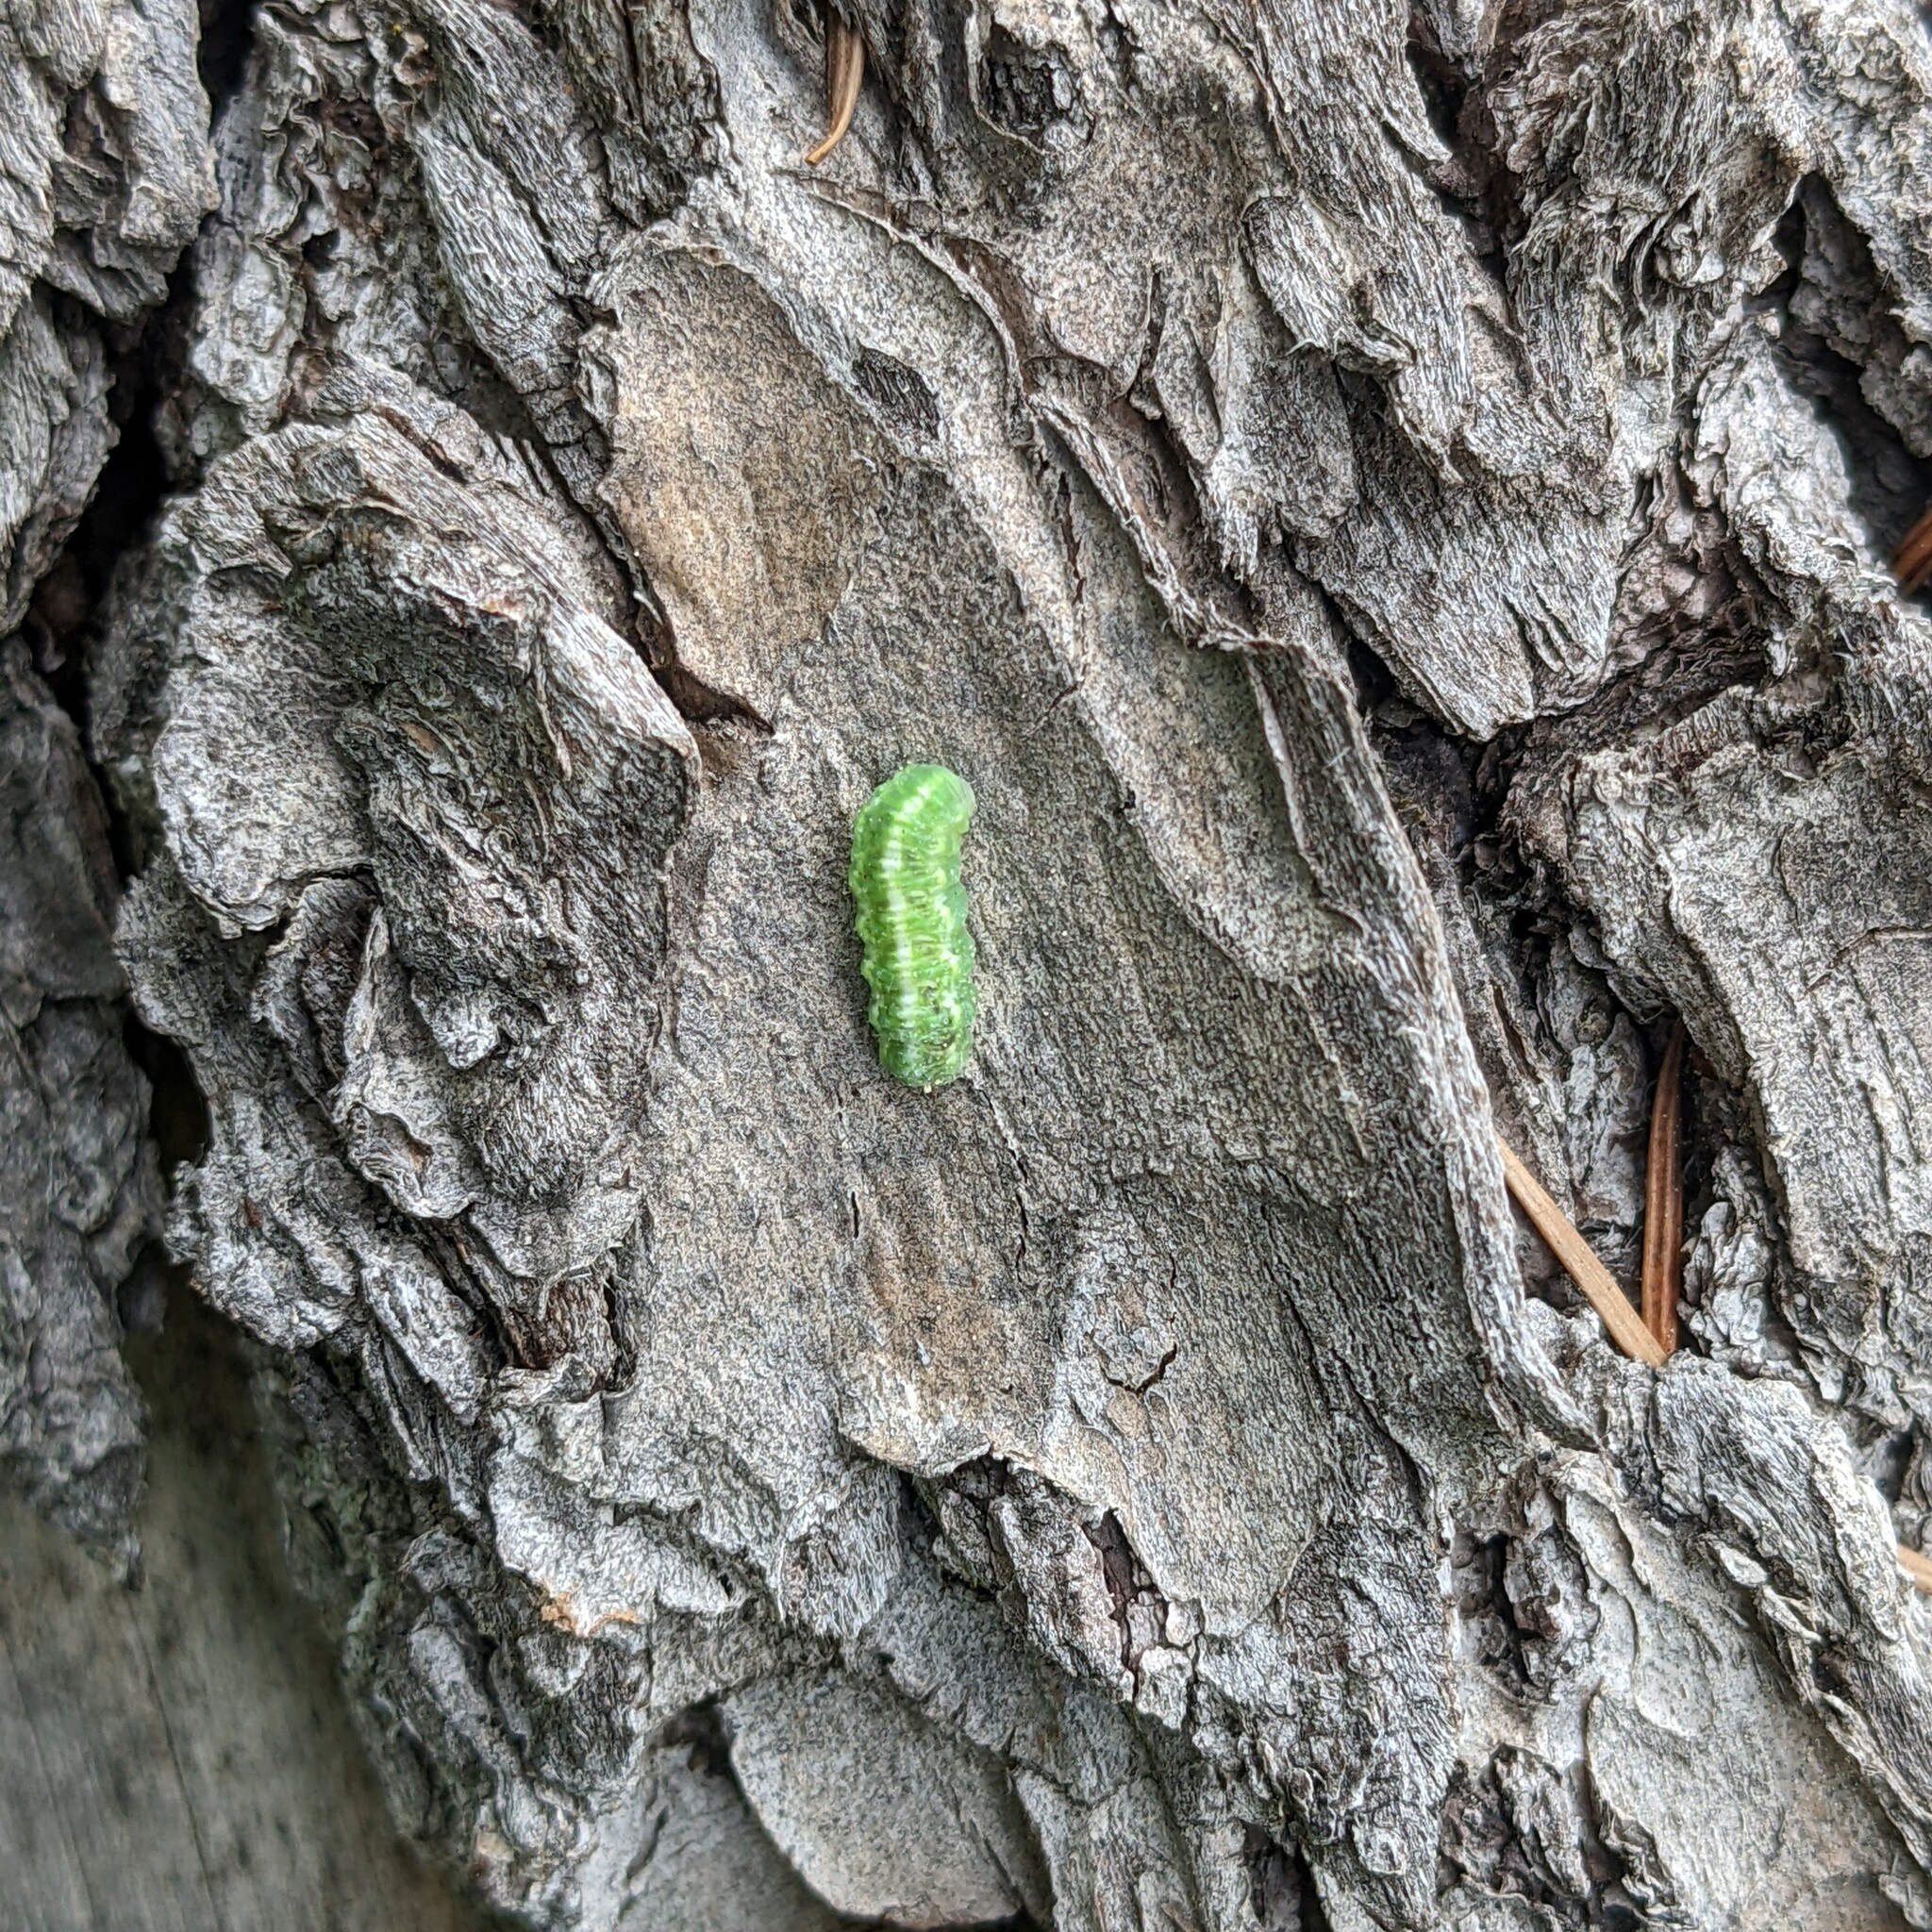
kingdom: Animalia
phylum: Arthropoda
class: Insecta
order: Diptera
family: Syrphidae
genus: Scaeva
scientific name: Scaeva affinis
